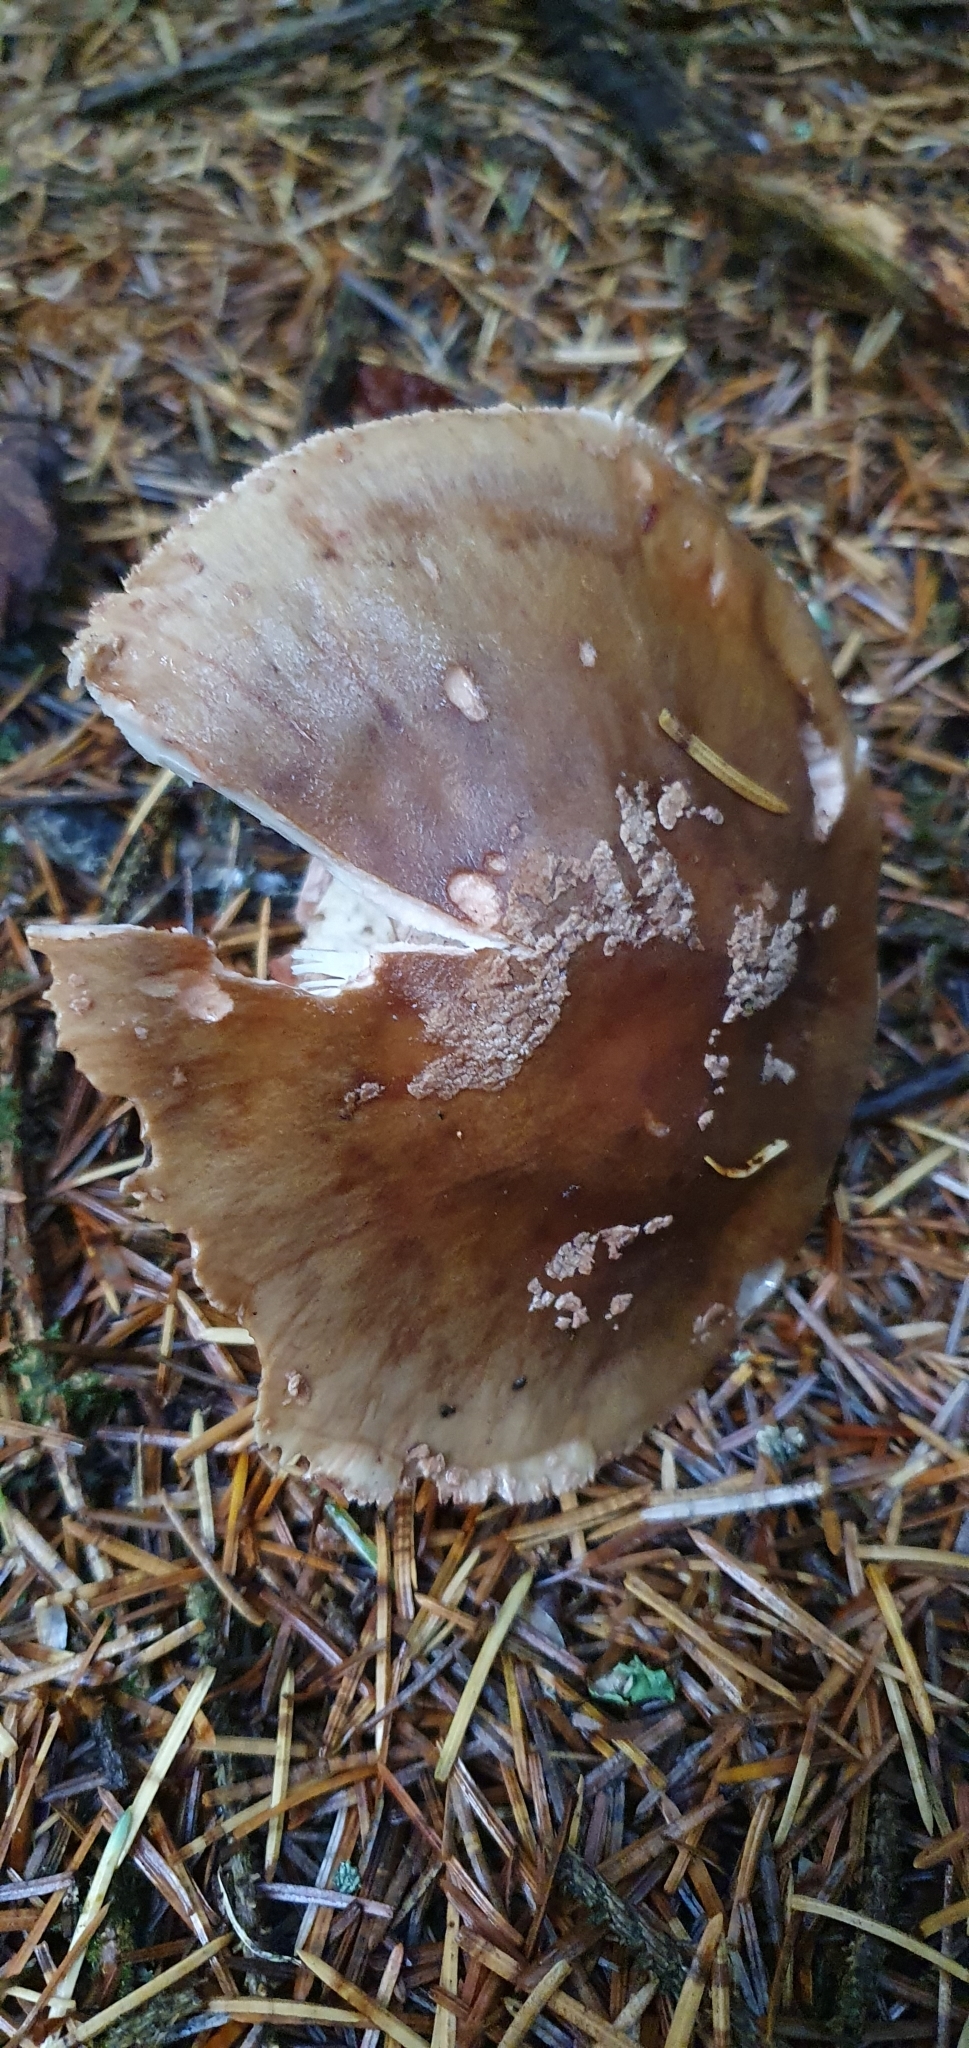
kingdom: Fungi
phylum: Basidiomycota
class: Agaricomycetes
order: Agaricales
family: Amanitaceae
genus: Amanita
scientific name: Amanita rubescens
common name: Blusher
